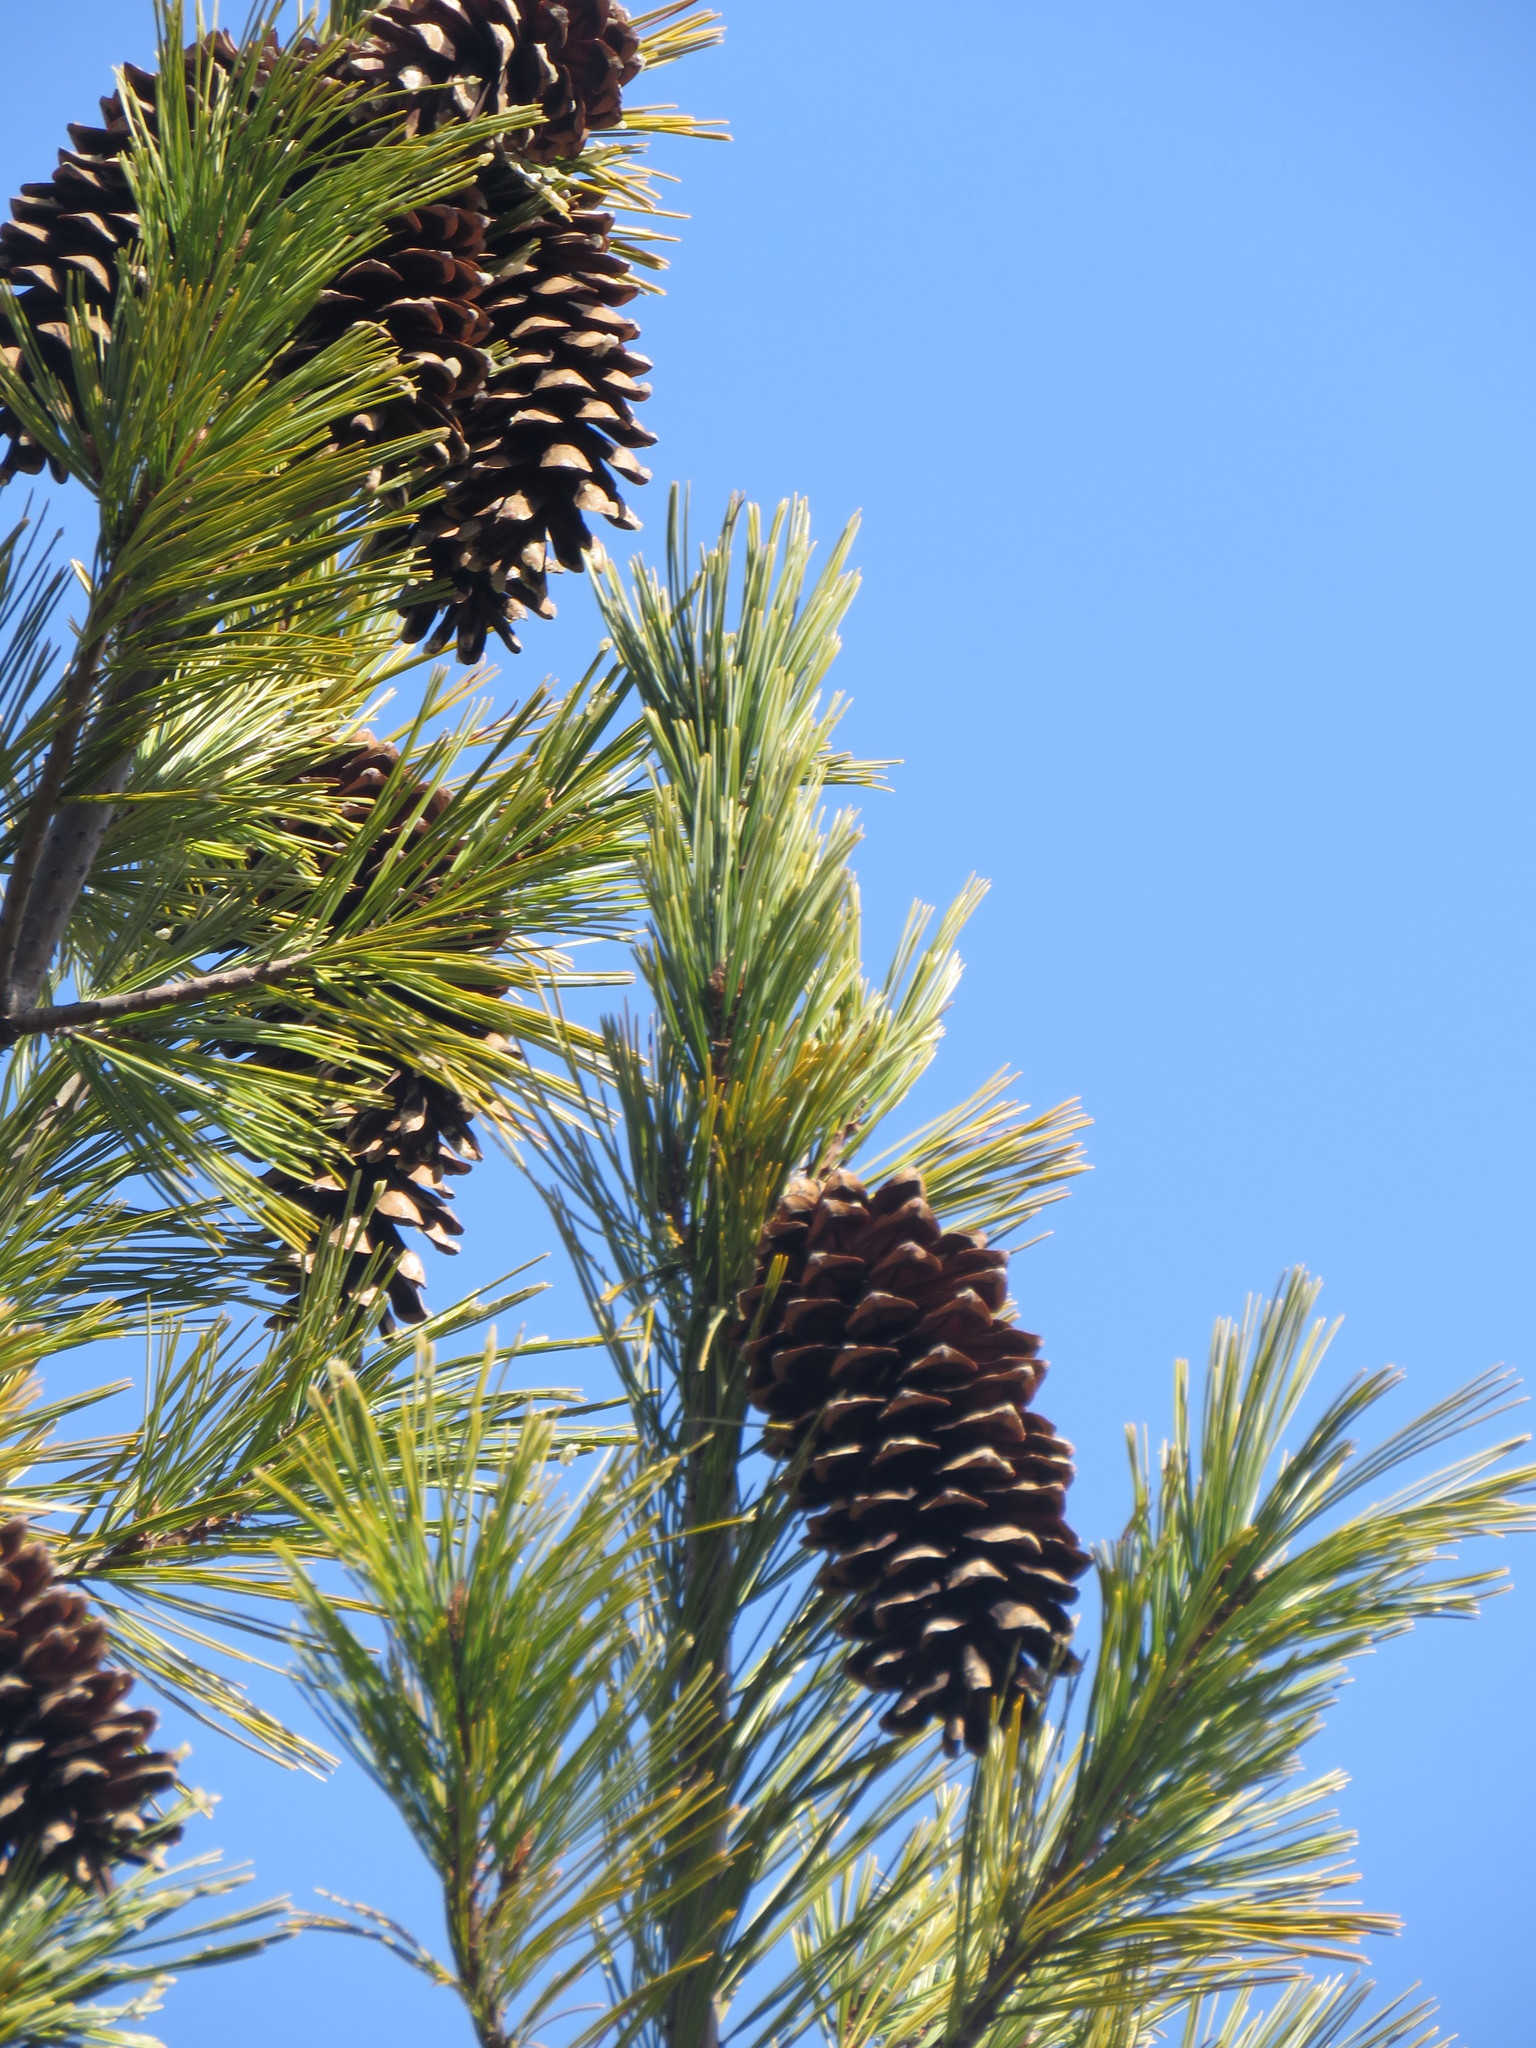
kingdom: Plantae
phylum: Tracheophyta
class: Pinopsida
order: Pinales
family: Pinaceae
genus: Pinus
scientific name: Pinus monticola
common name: Western white pine
